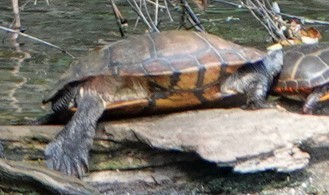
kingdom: Animalia
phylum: Chordata
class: Testudines
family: Emydidae
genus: Trachemys
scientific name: Trachemys scripta
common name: Slider
